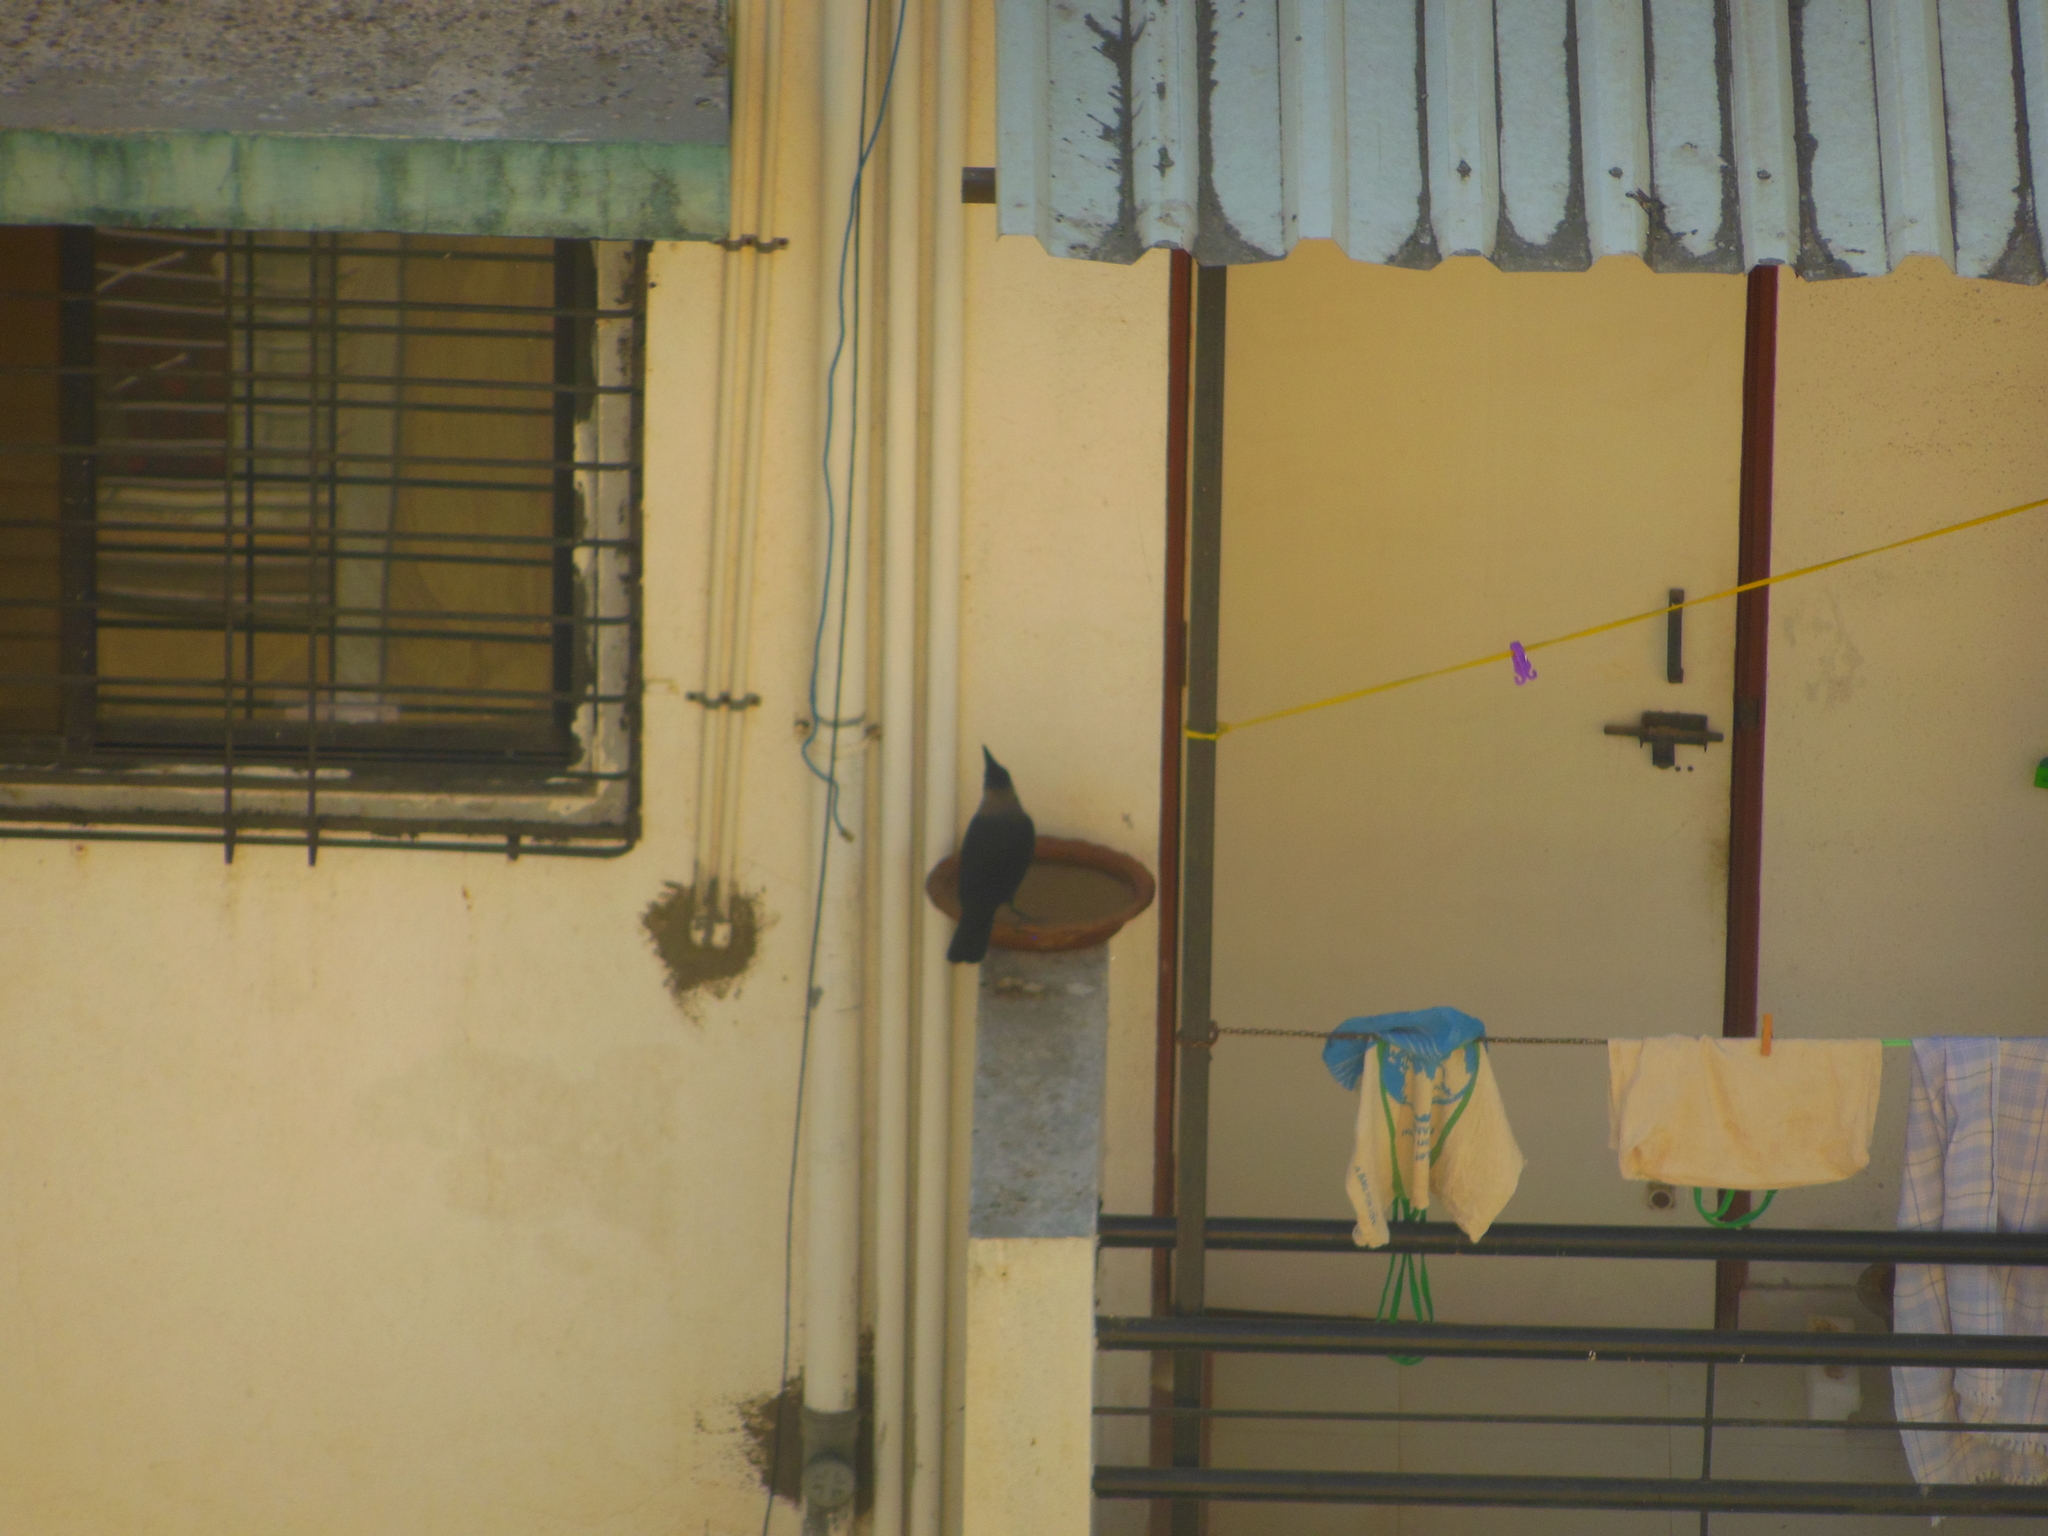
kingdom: Animalia
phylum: Chordata
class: Aves
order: Passeriformes
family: Corvidae
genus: Corvus
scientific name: Corvus splendens
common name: House crow
